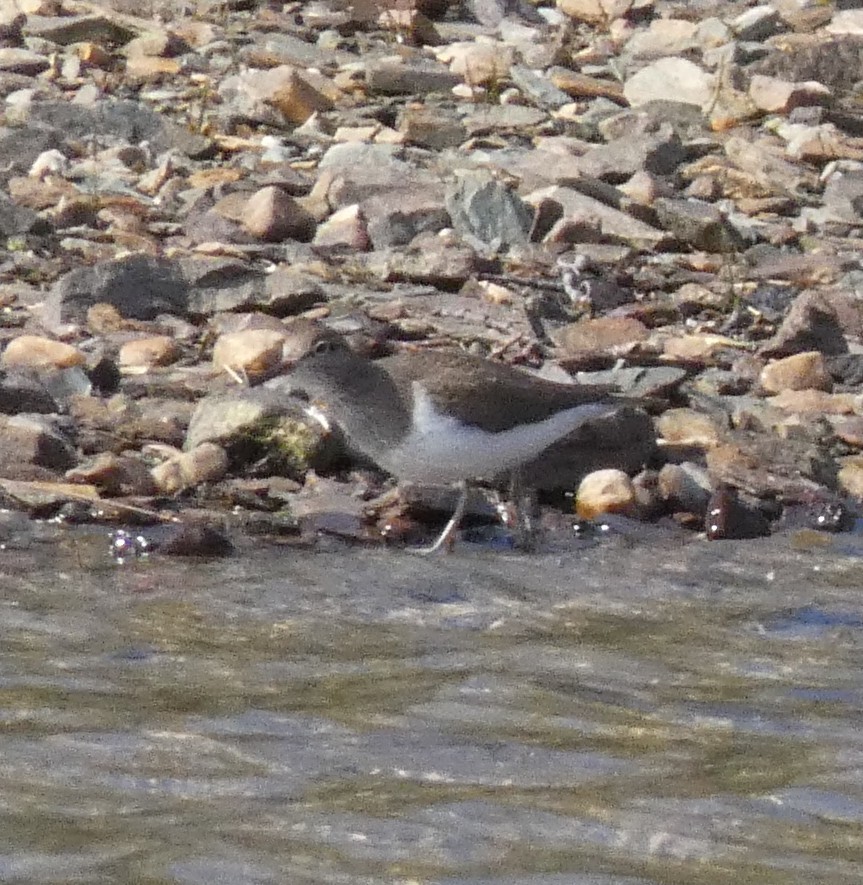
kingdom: Animalia
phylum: Chordata
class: Aves
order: Charadriiformes
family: Scolopacidae
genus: Actitis
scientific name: Actitis hypoleucos
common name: Common sandpiper
